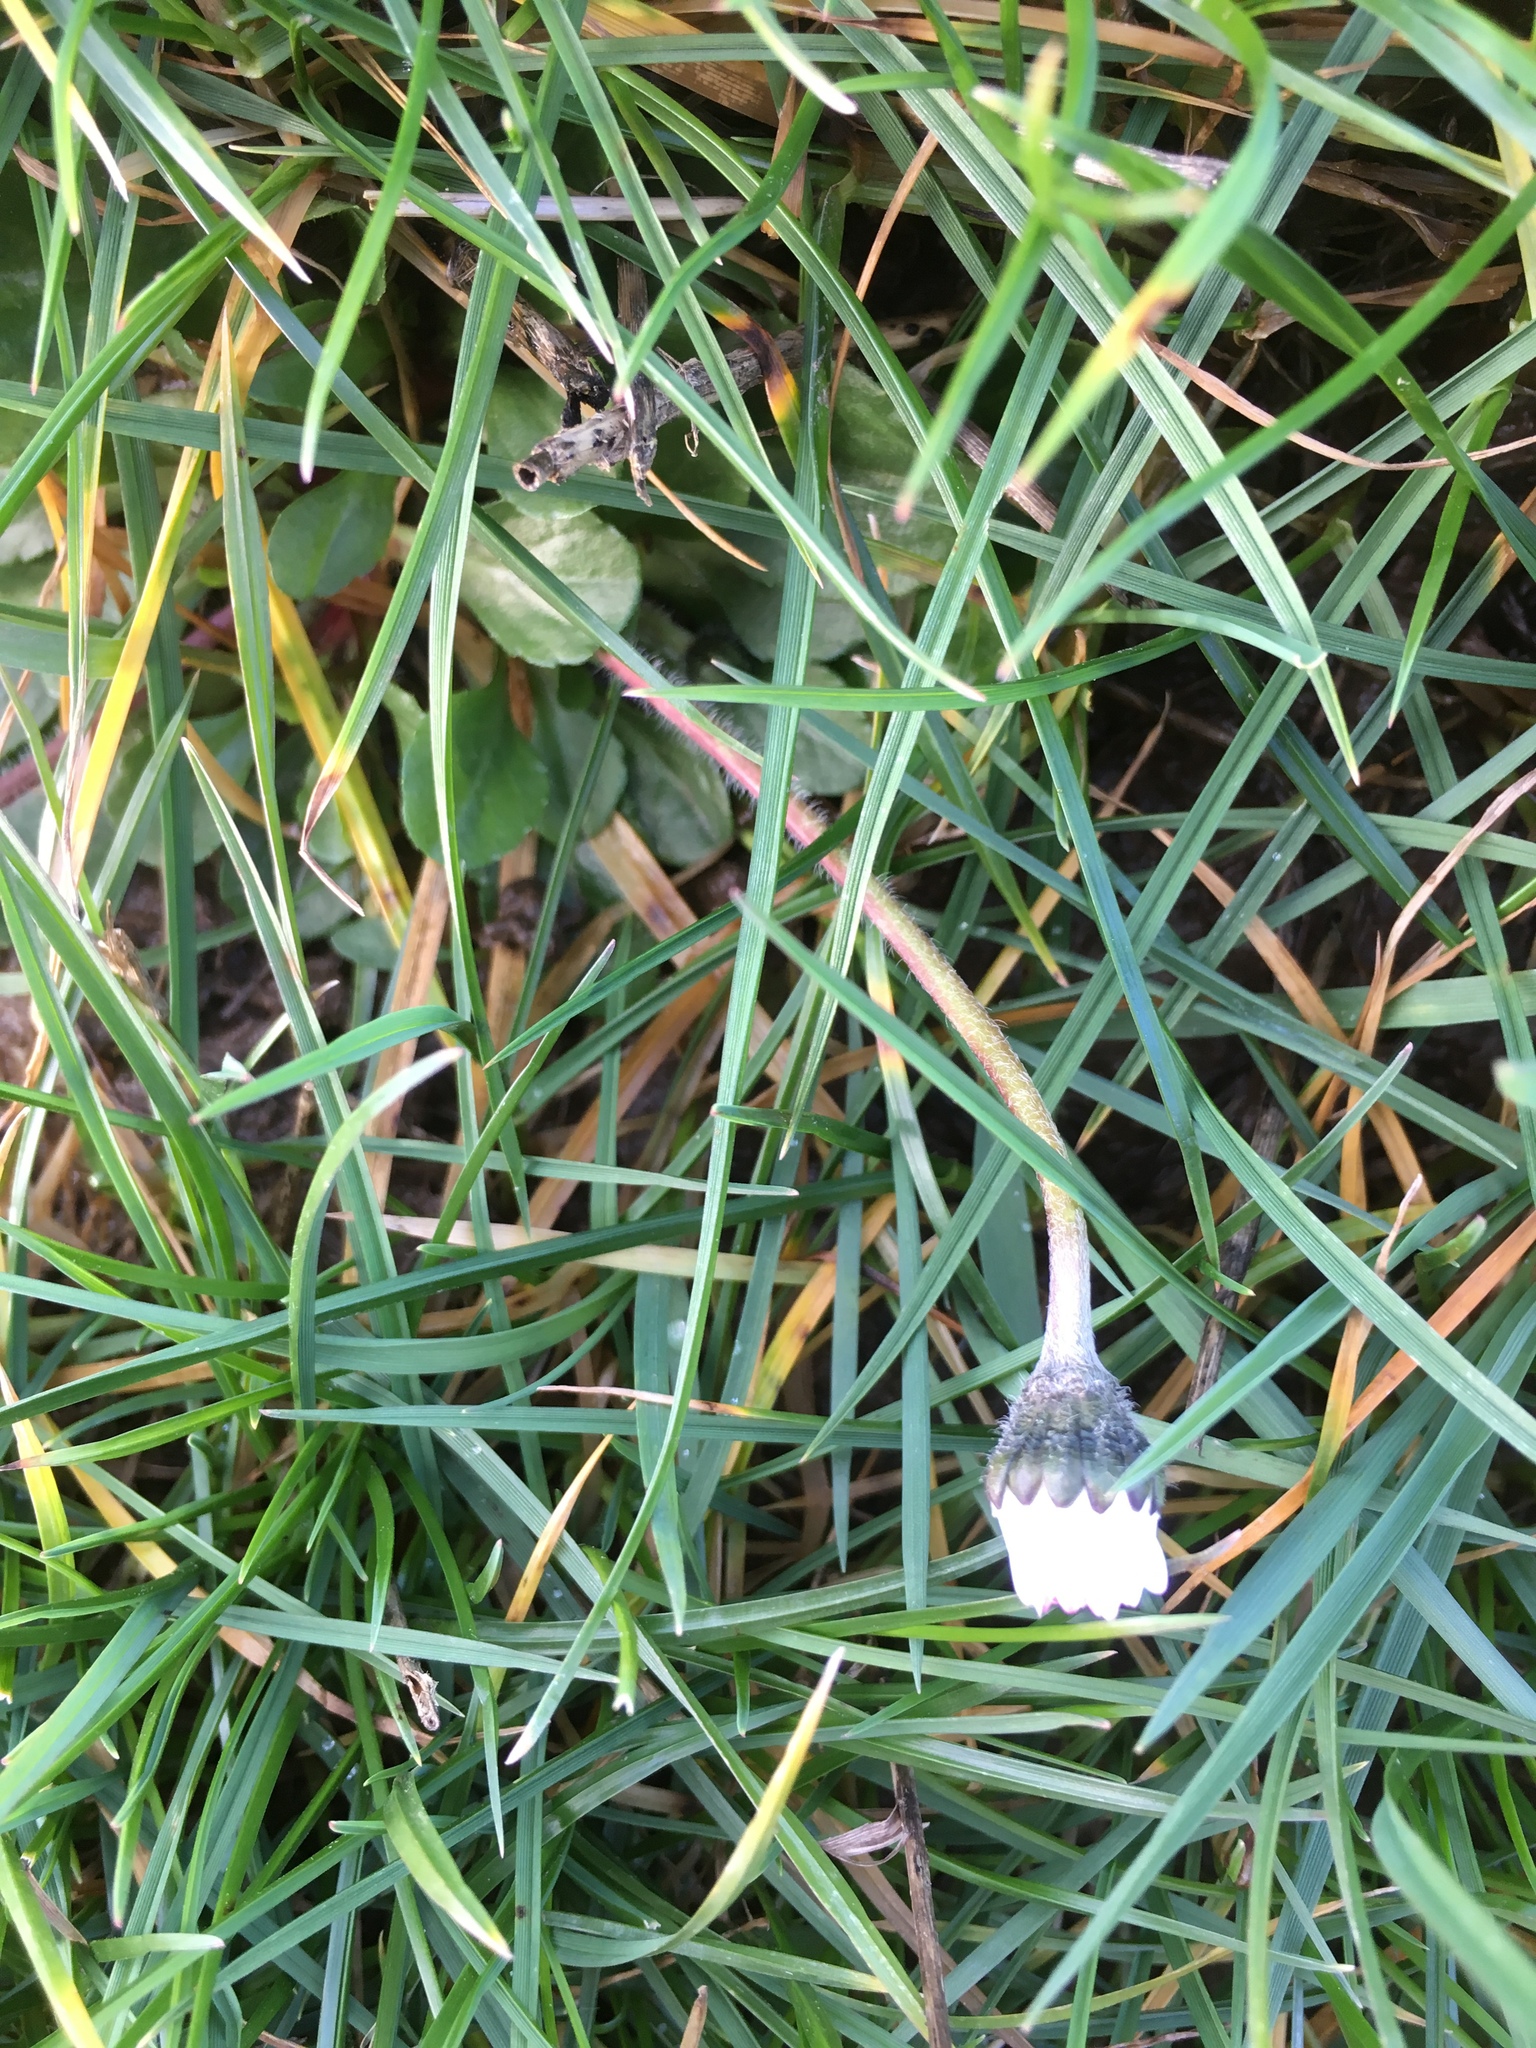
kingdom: Plantae
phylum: Tracheophyta
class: Magnoliopsida
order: Asterales
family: Asteraceae
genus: Bellis
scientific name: Bellis perennis
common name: Lawndaisy
